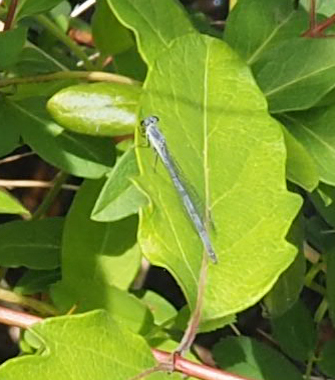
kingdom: Animalia
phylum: Arthropoda
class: Insecta
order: Odonata
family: Coenagrionidae
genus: Ischnura
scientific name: Ischnura posita
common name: Fragile forktail
